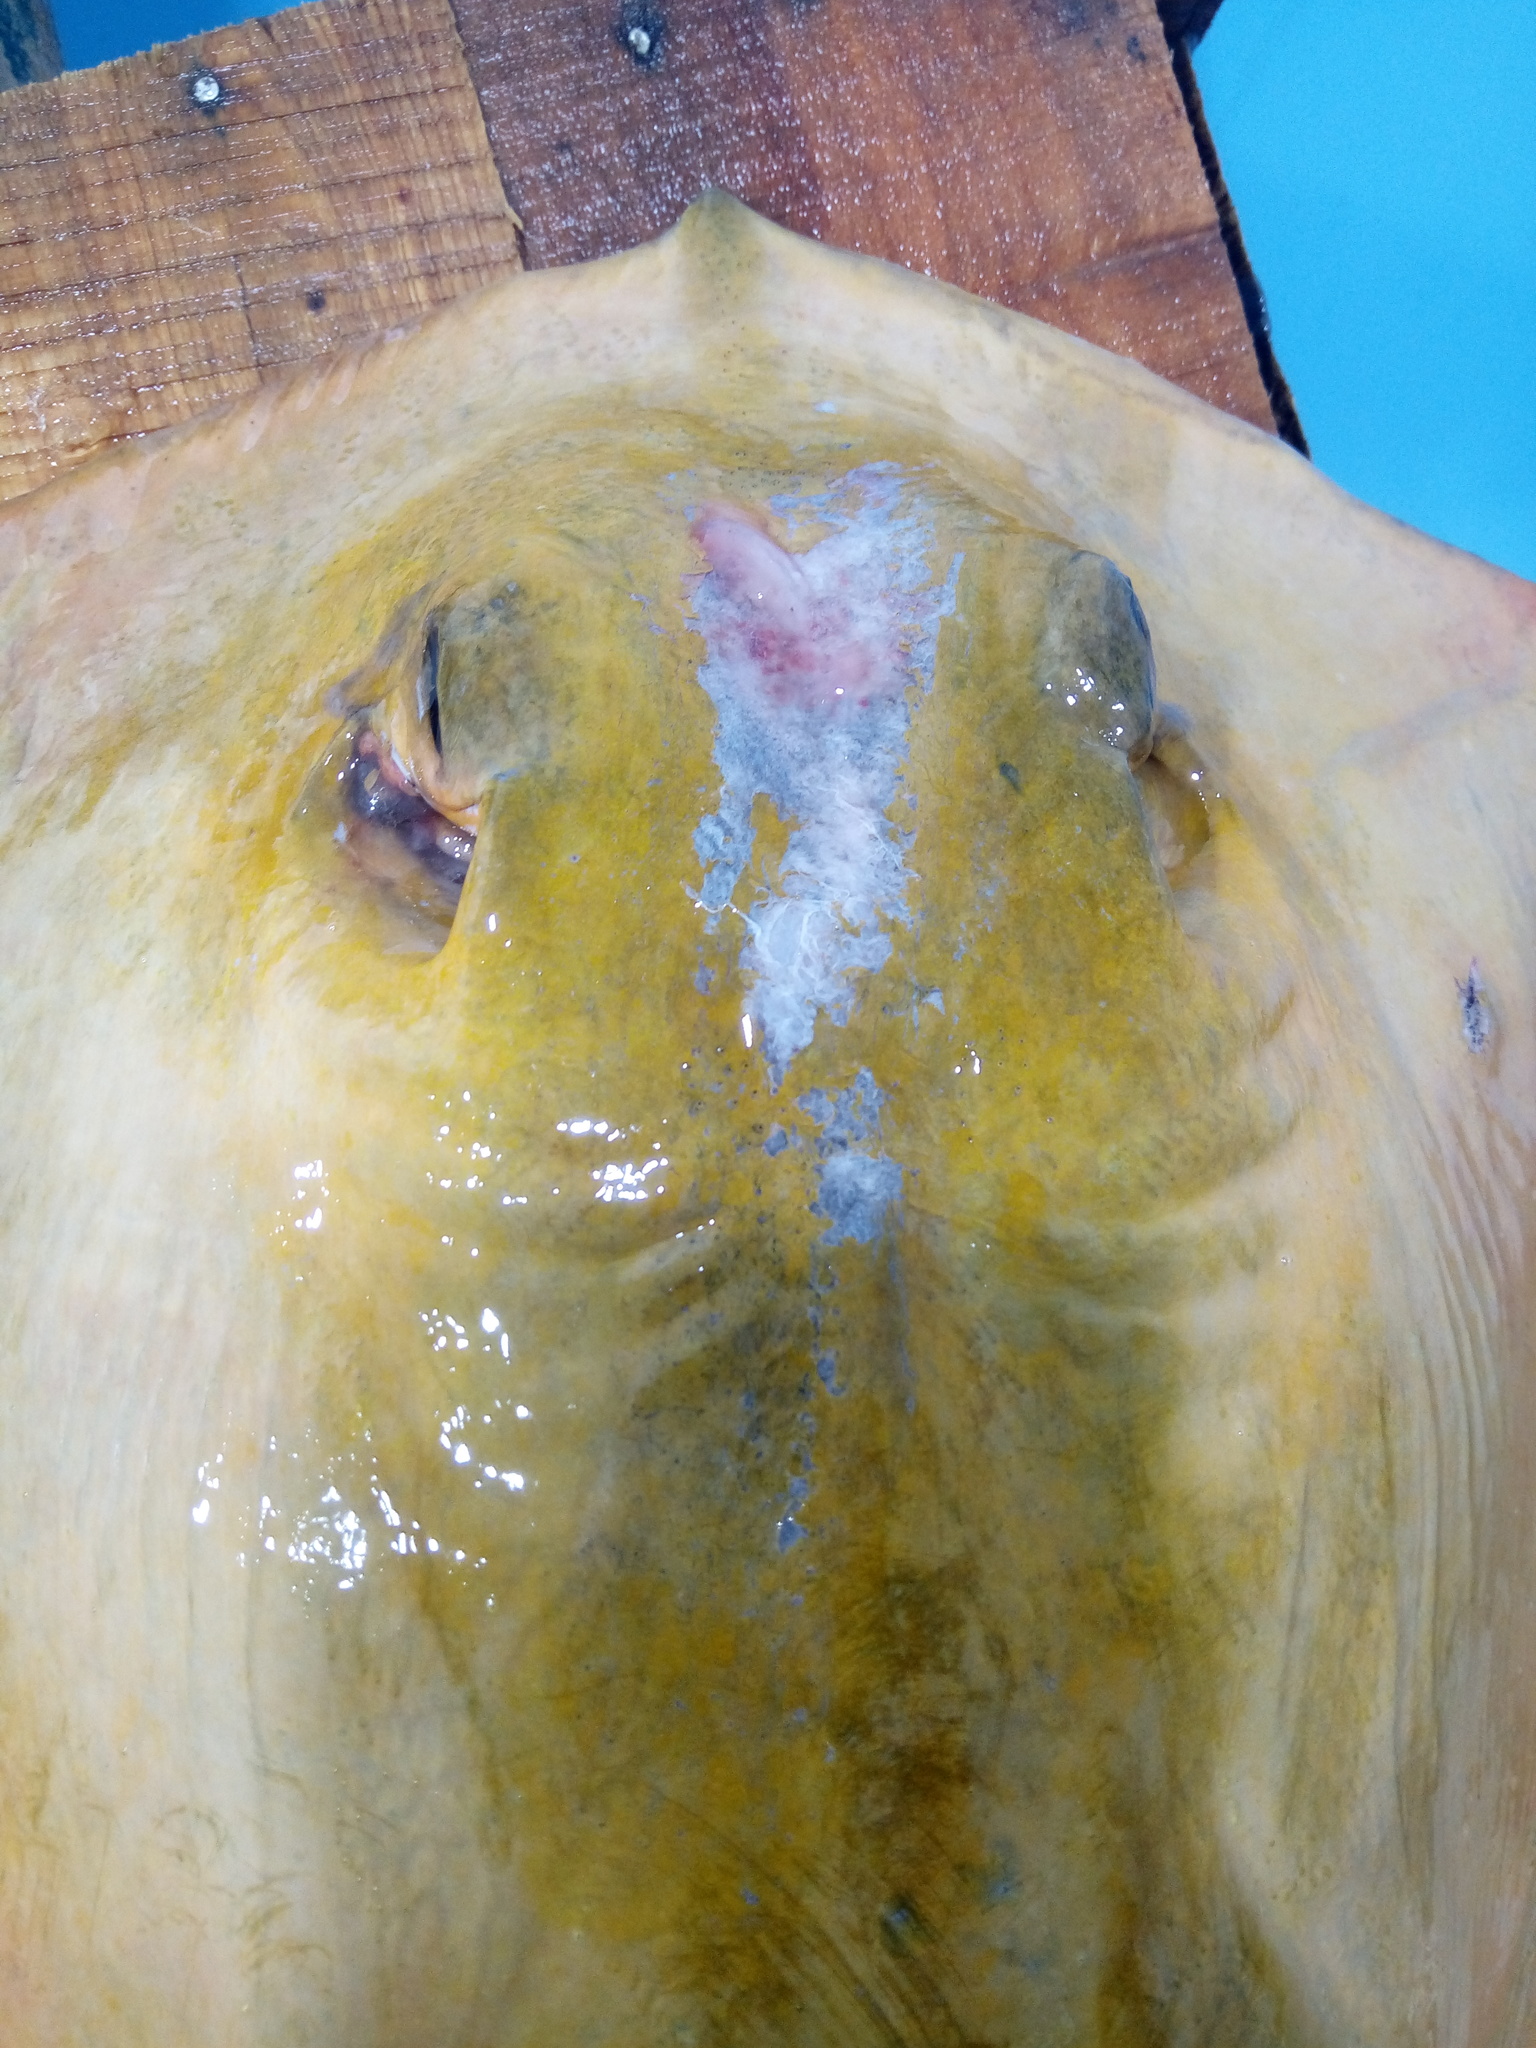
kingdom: Animalia
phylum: Chordata
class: Elasmobranchii
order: Myliobatiformes
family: Dasyatidae
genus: Dasyatis
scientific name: Dasyatis tortonesei
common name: Tortonese's stingray
